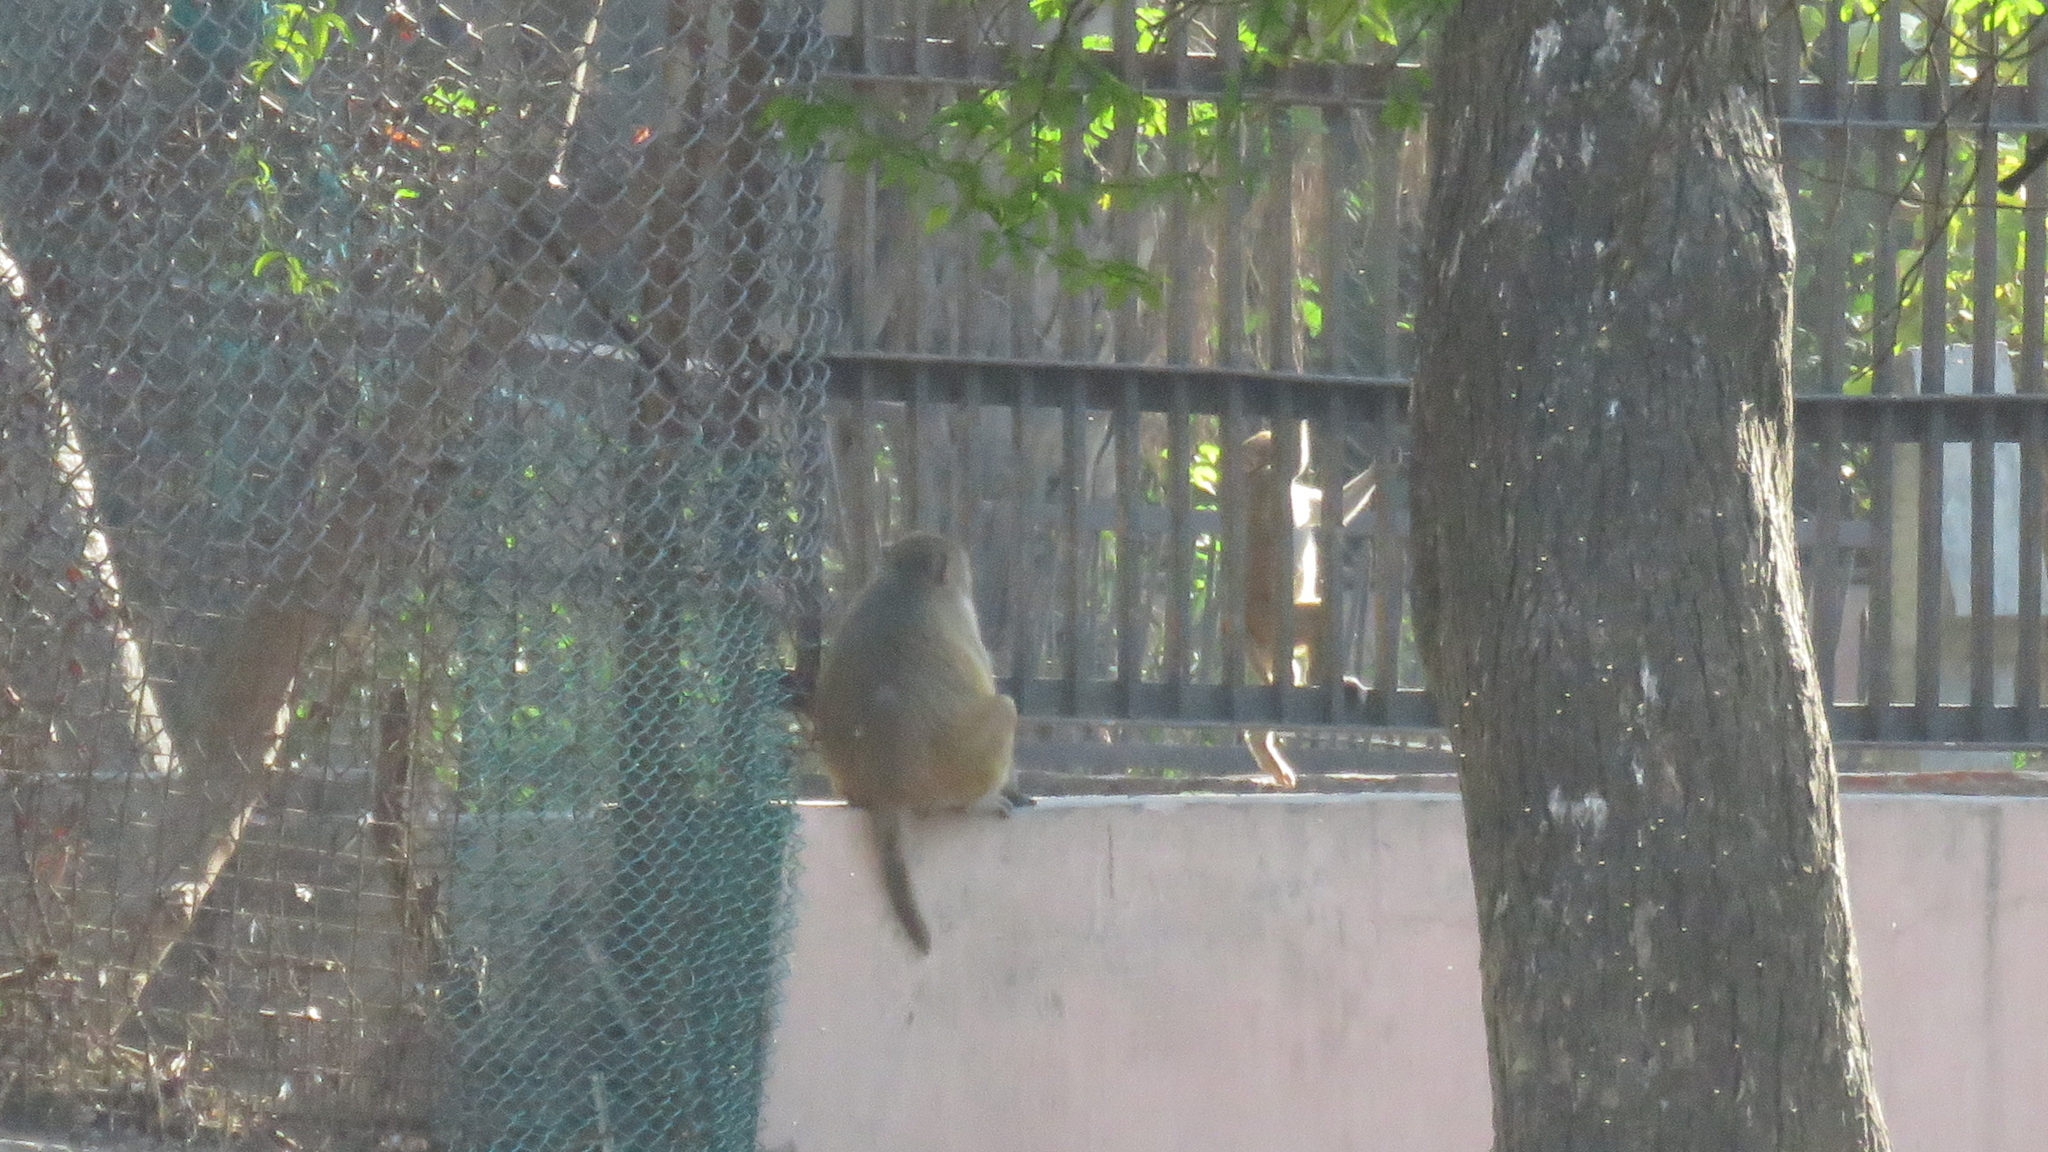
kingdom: Animalia
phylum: Chordata
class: Mammalia
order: Primates
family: Cercopithecidae
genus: Macaca
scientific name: Macaca mulatta
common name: Rhesus monkey
